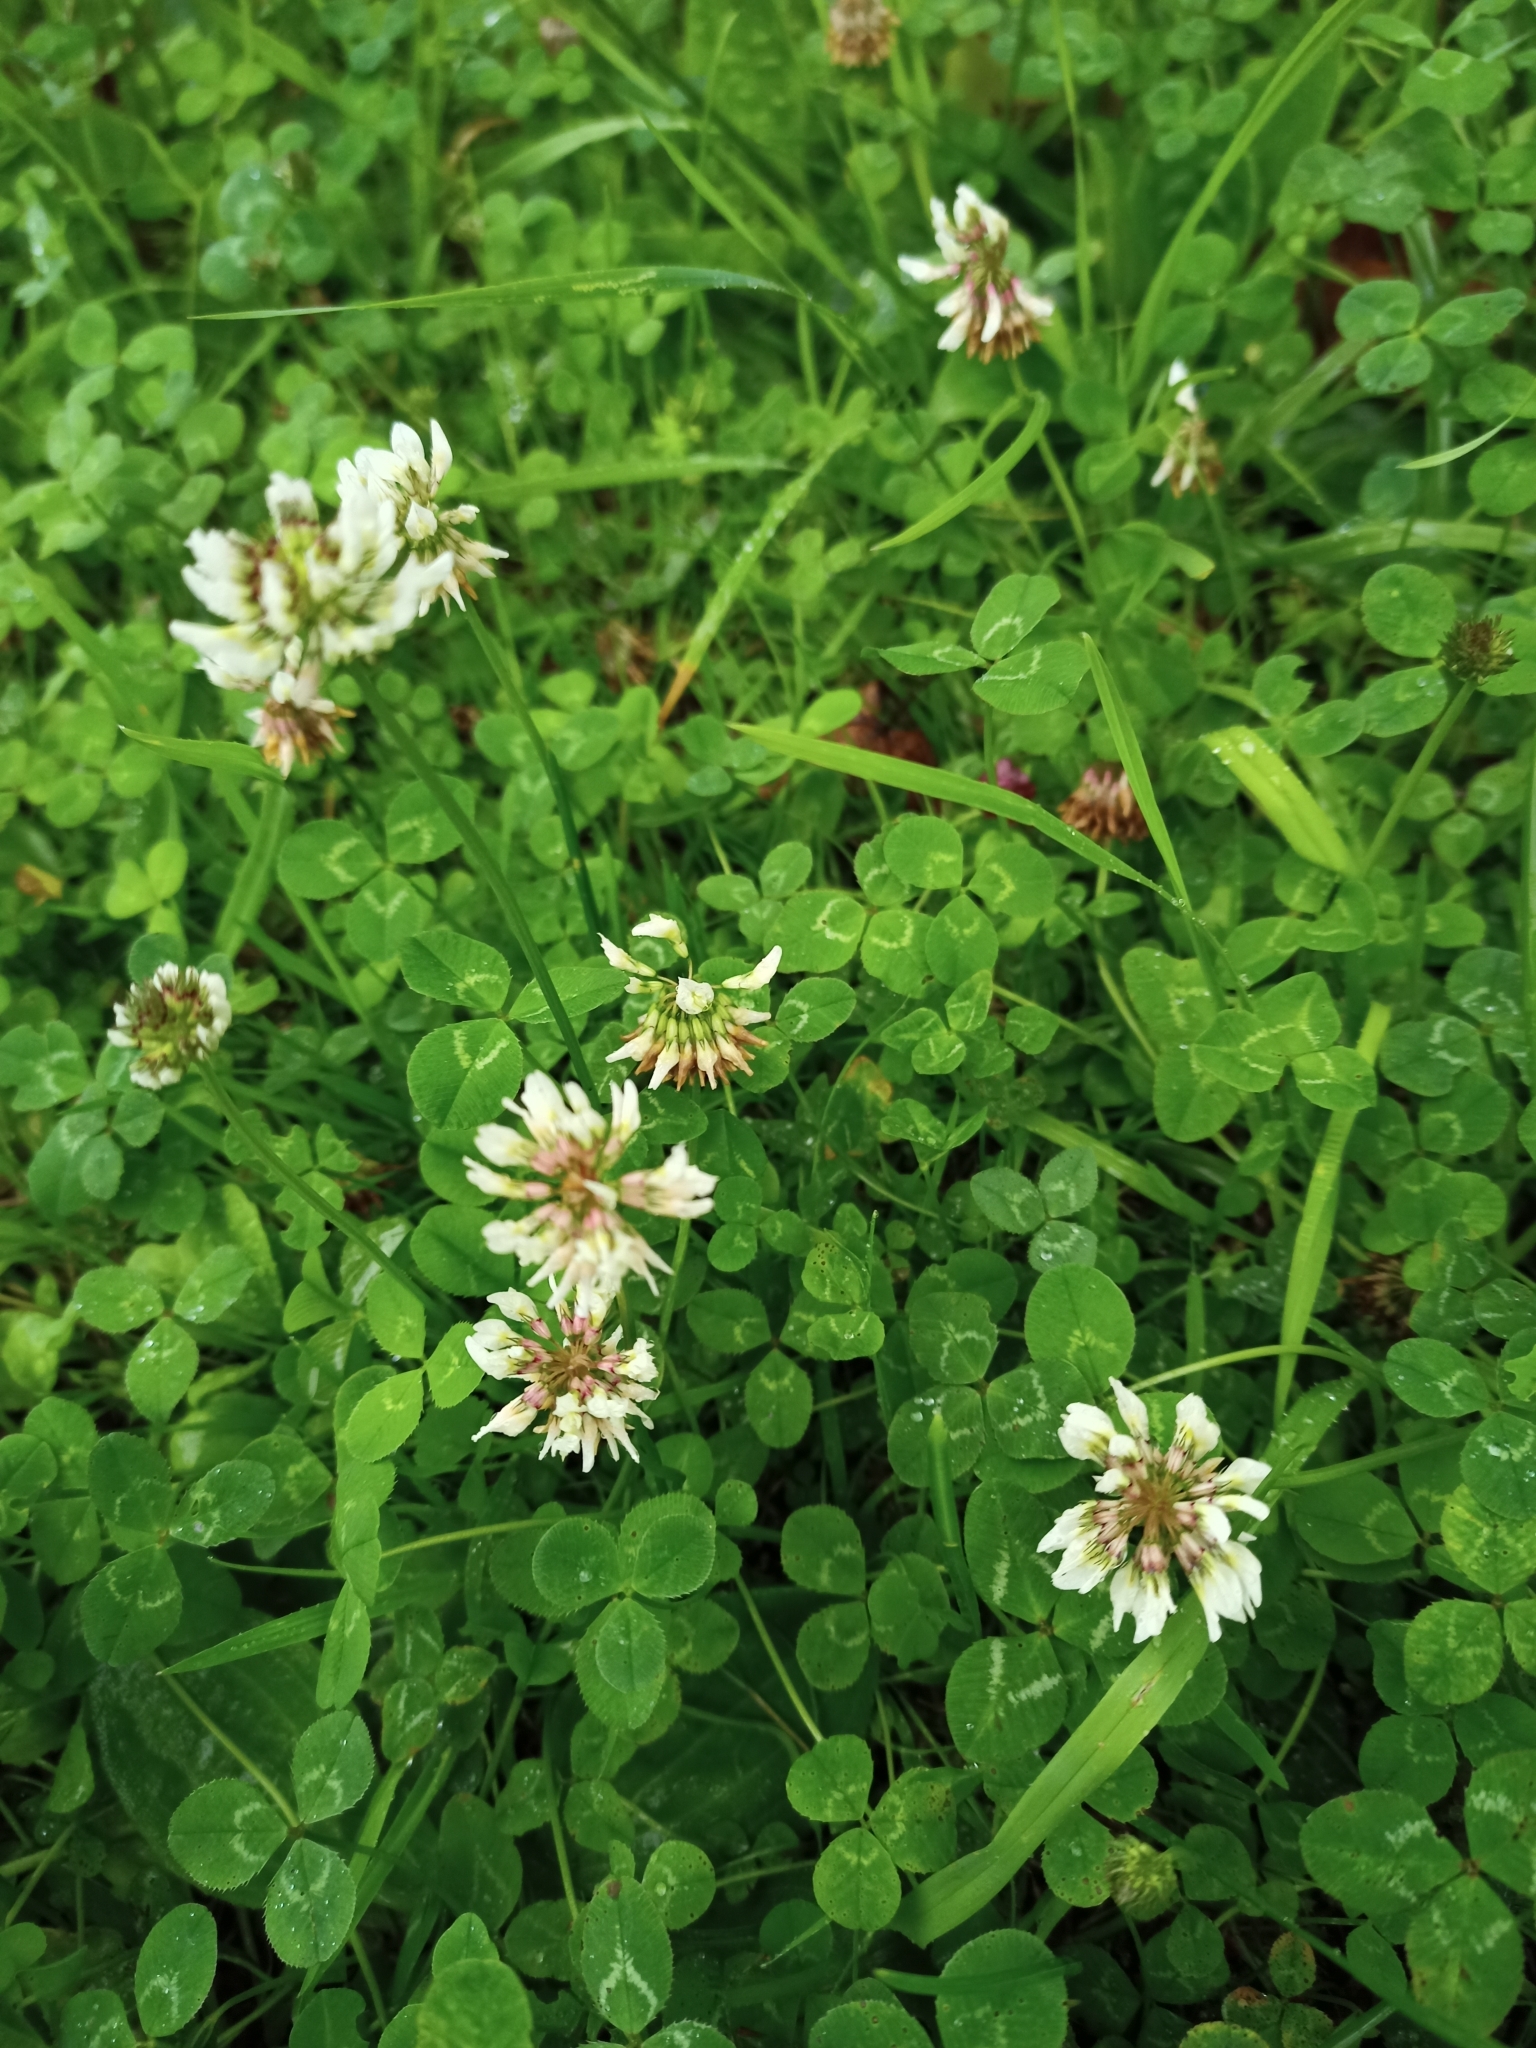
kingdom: Plantae
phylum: Tracheophyta
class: Magnoliopsida
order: Fabales
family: Fabaceae
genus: Trifolium
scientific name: Trifolium repens
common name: White clover
